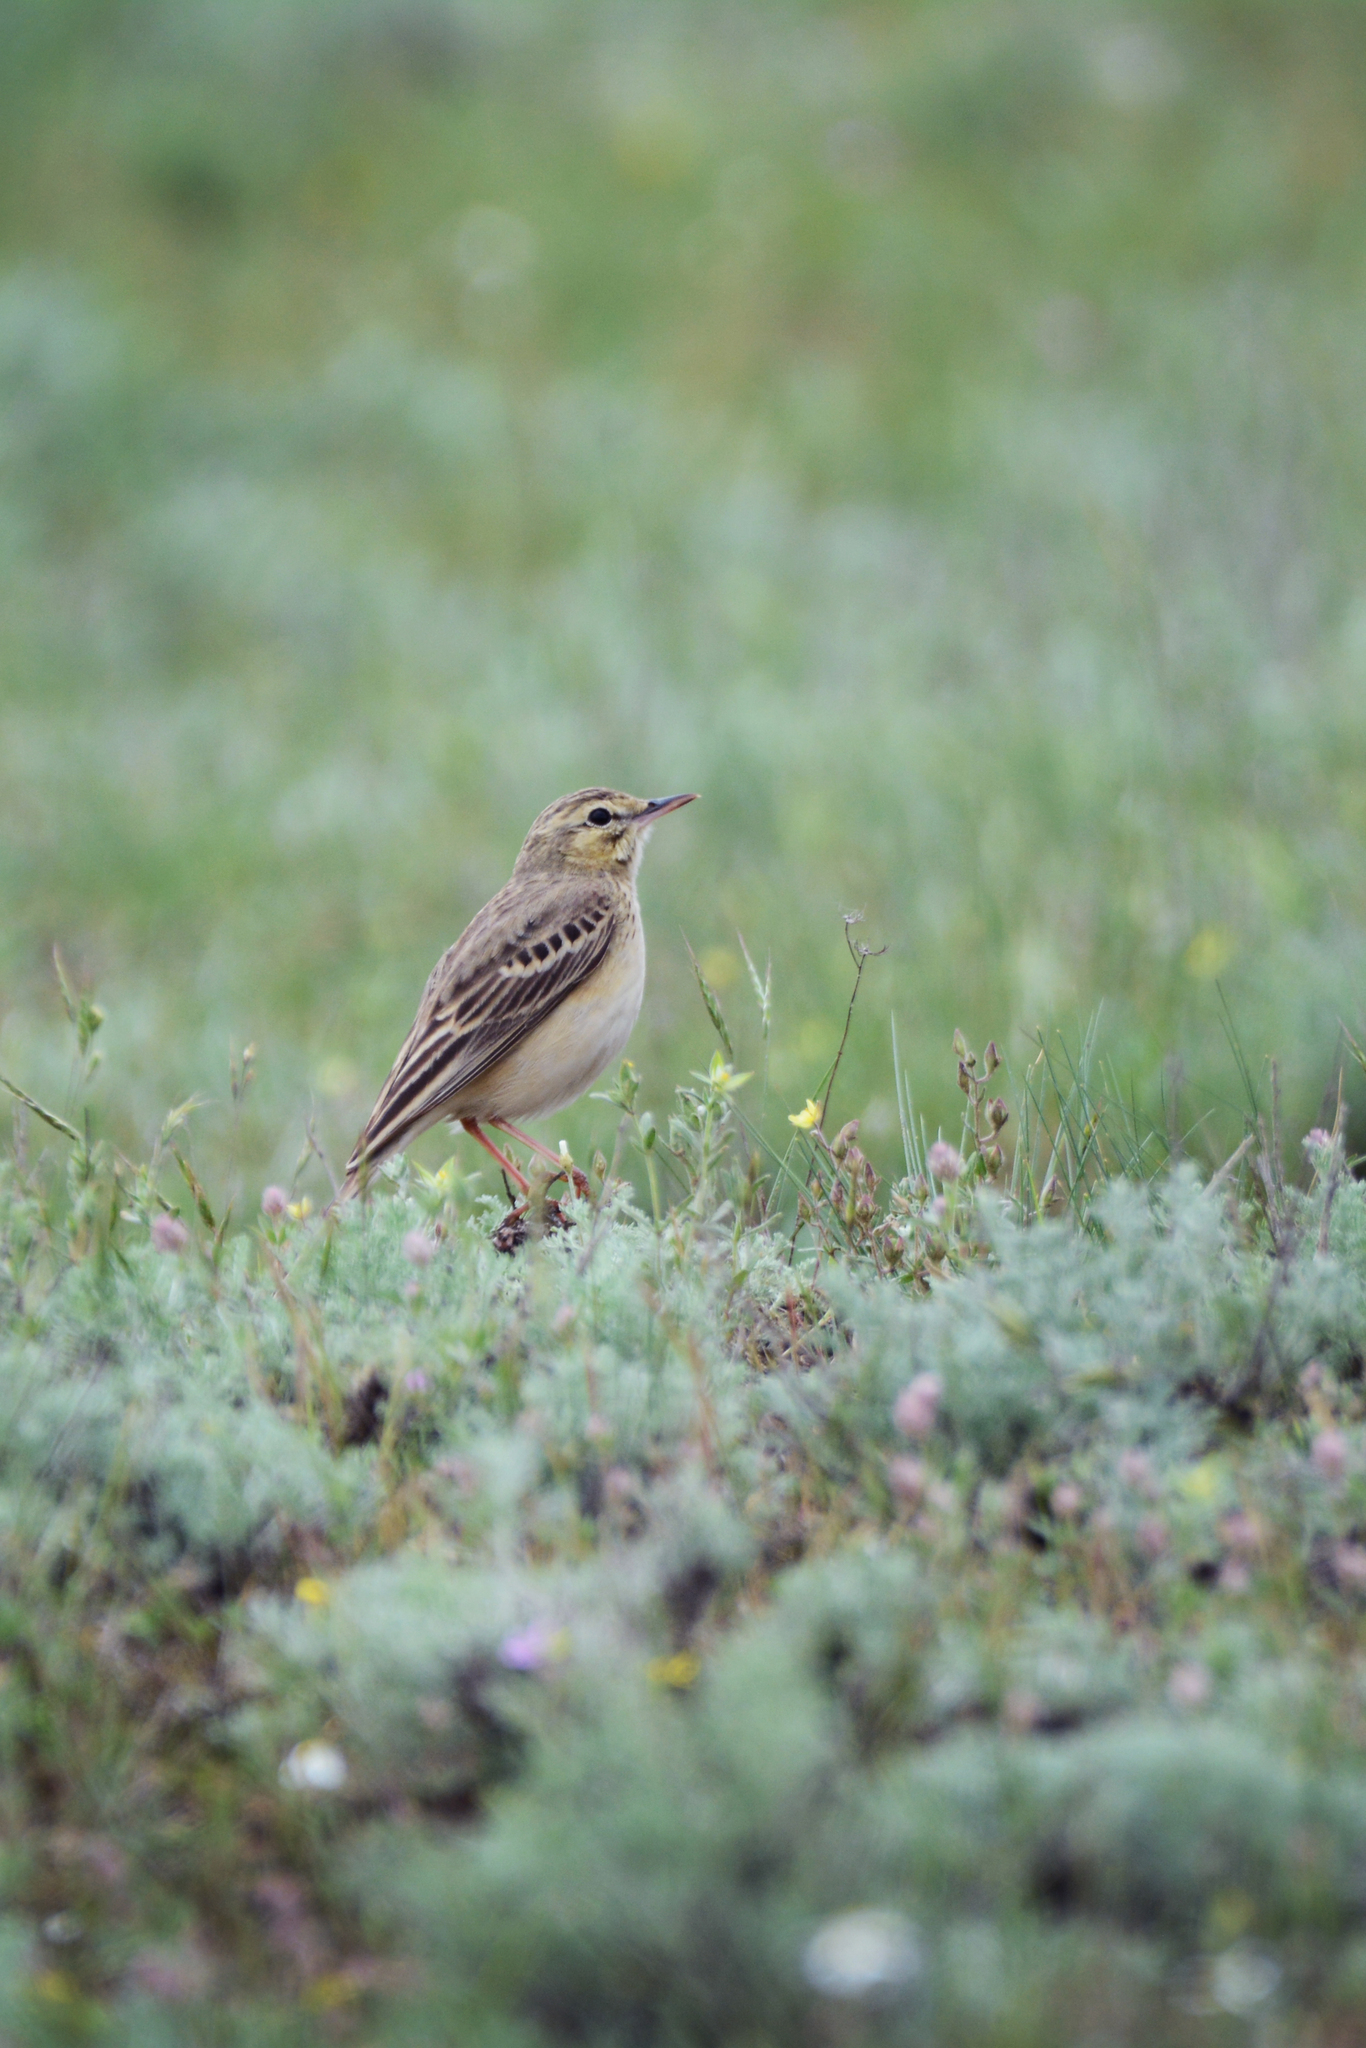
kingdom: Animalia
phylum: Chordata
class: Aves
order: Passeriformes
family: Motacillidae
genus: Anthus
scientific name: Anthus campestris
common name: Tawny pipit
